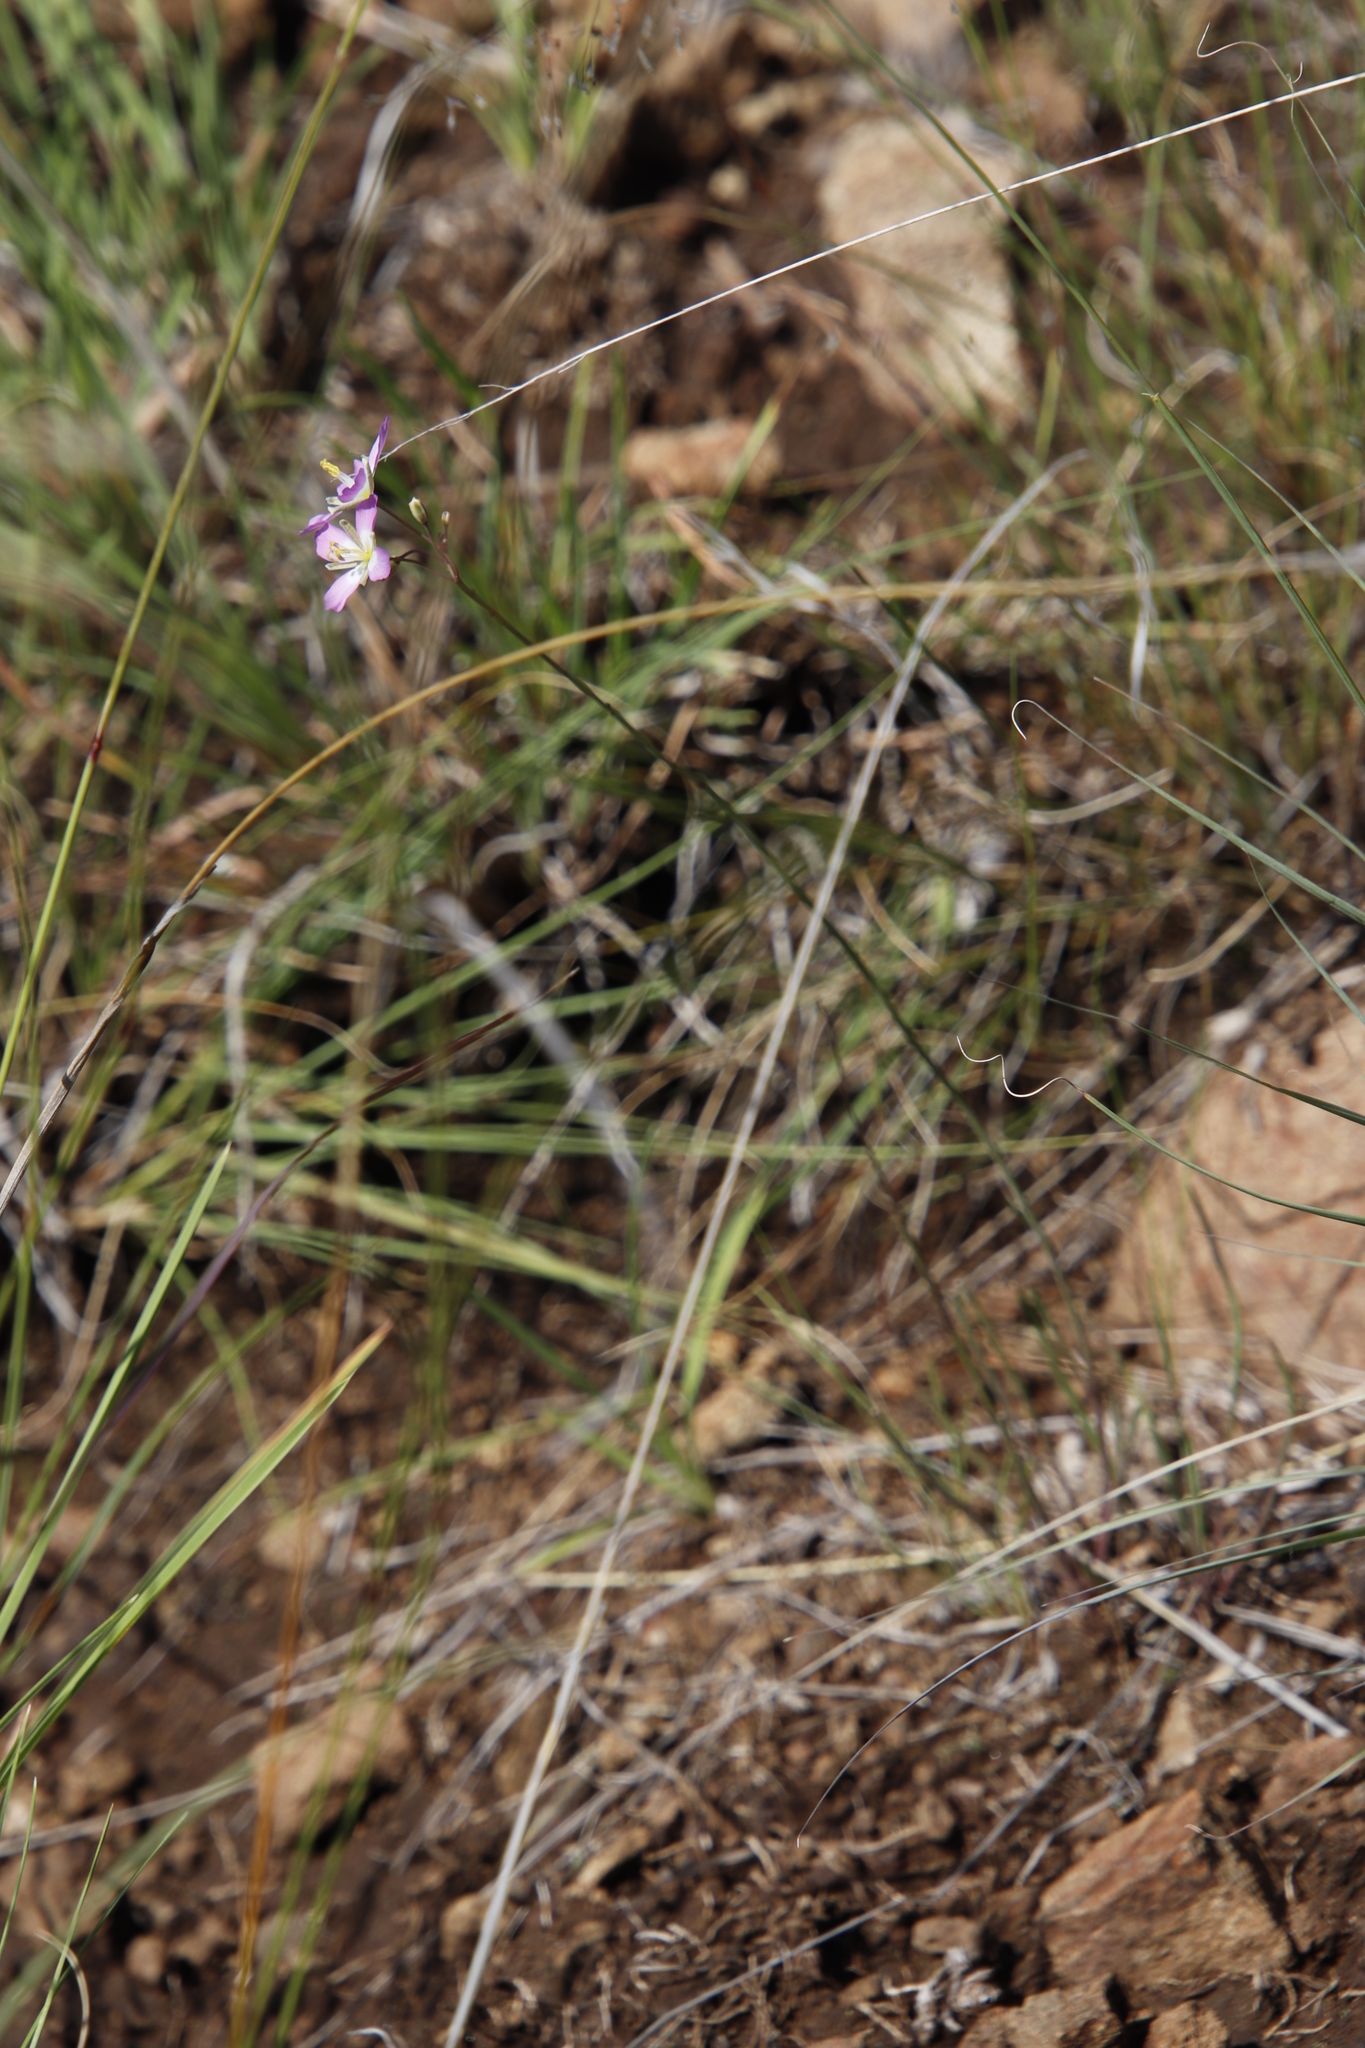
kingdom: Plantae
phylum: Tracheophyta
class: Magnoliopsida
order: Brassicales
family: Brassicaceae
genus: Heliophila
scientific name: Heliophila carnosa
